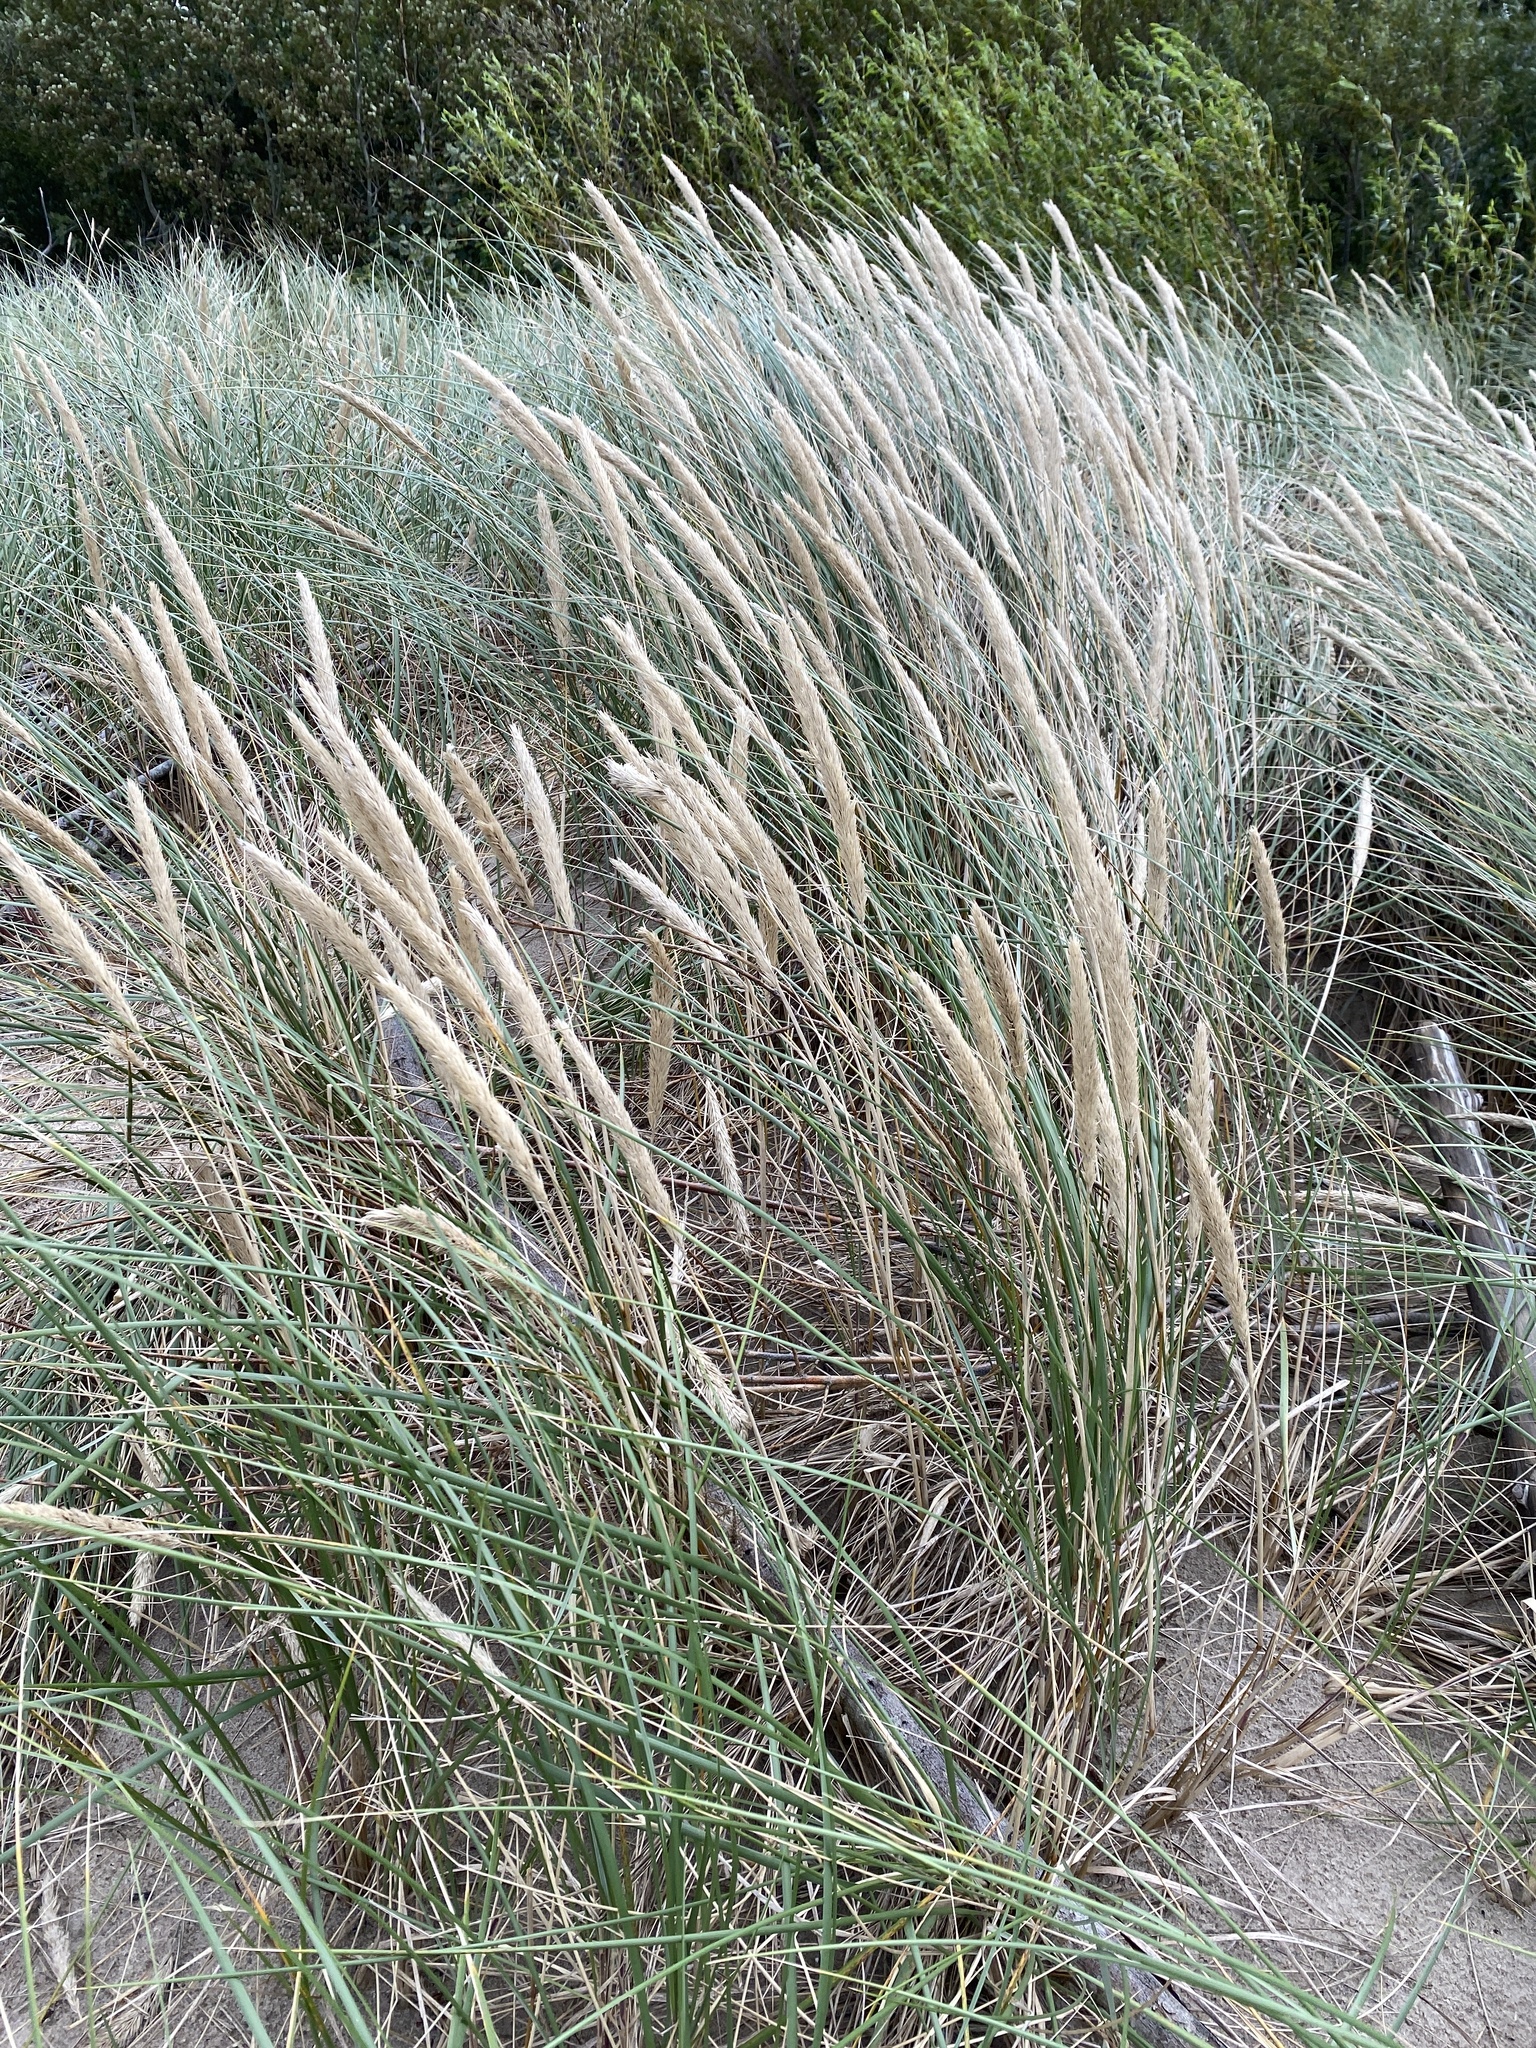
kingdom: Plantae
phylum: Tracheophyta
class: Liliopsida
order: Poales
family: Poaceae
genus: Calamagrostis
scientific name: Calamagrostis arenaria
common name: European beachgrass
